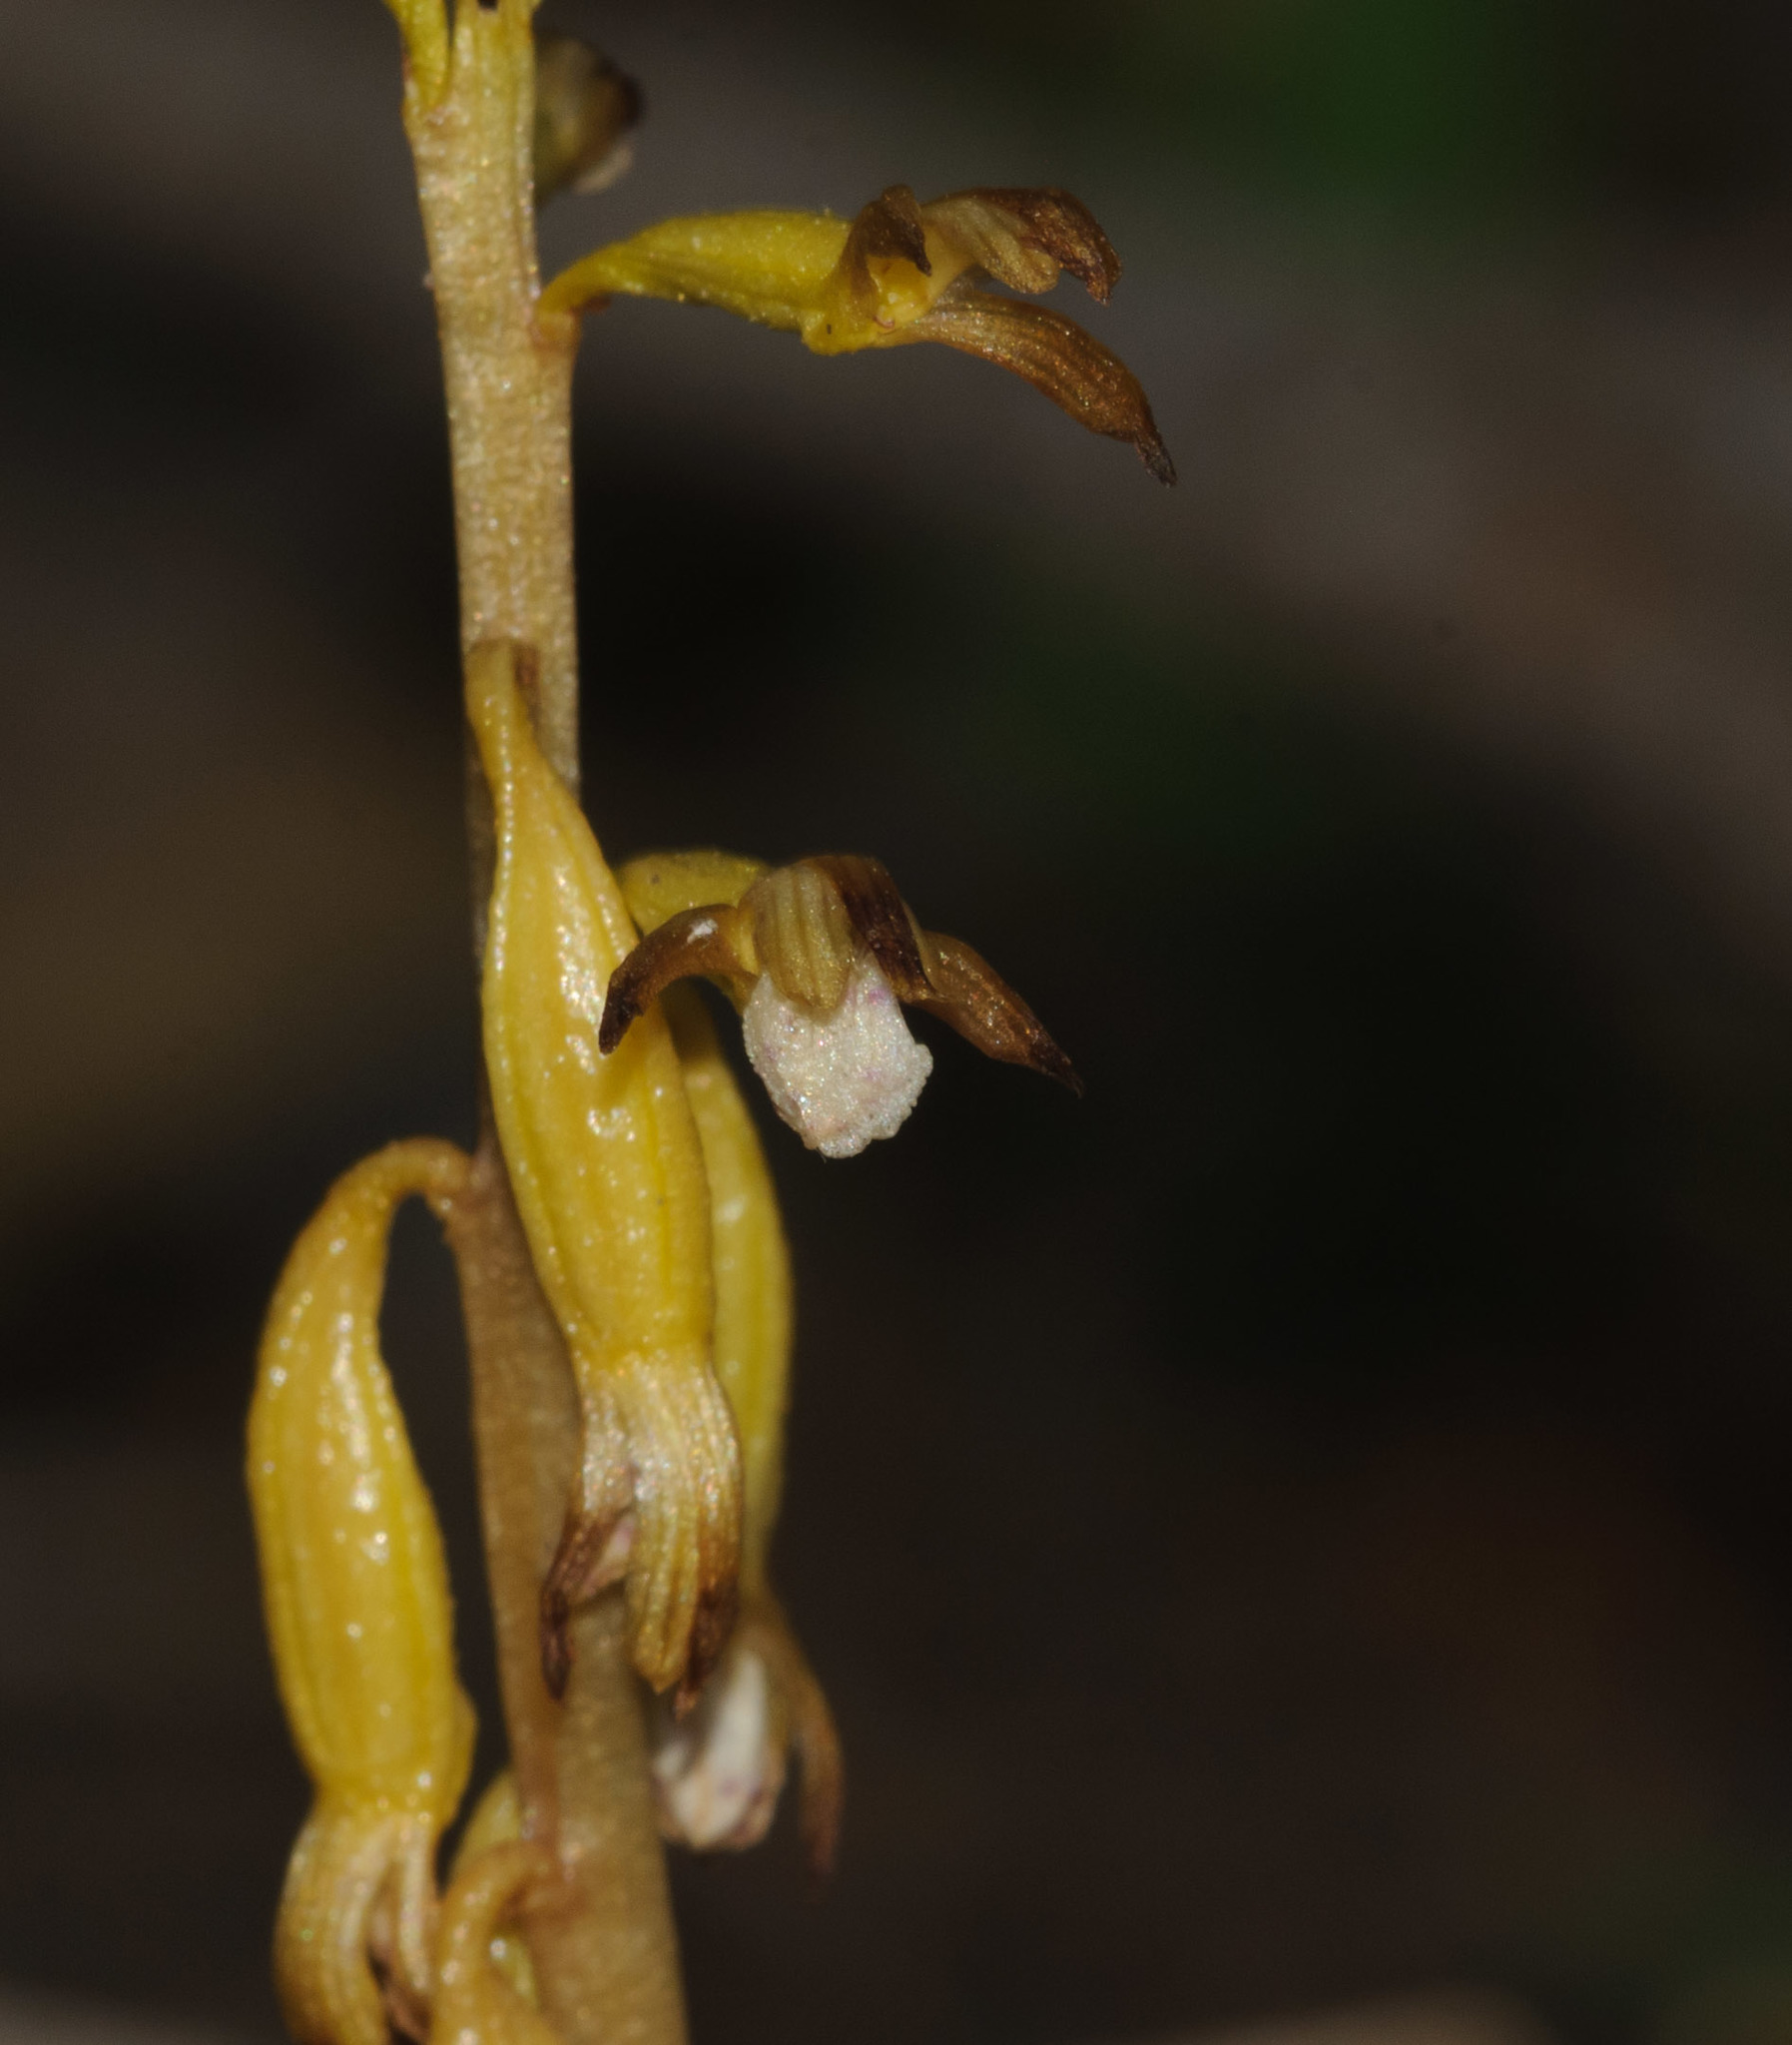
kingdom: Plantae
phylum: Tracheophyta
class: Liliopsida
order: Asparagales
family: Orchidaceae
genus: Corallorhiza
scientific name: Corallorhiza maculata
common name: Spotted coralroot
